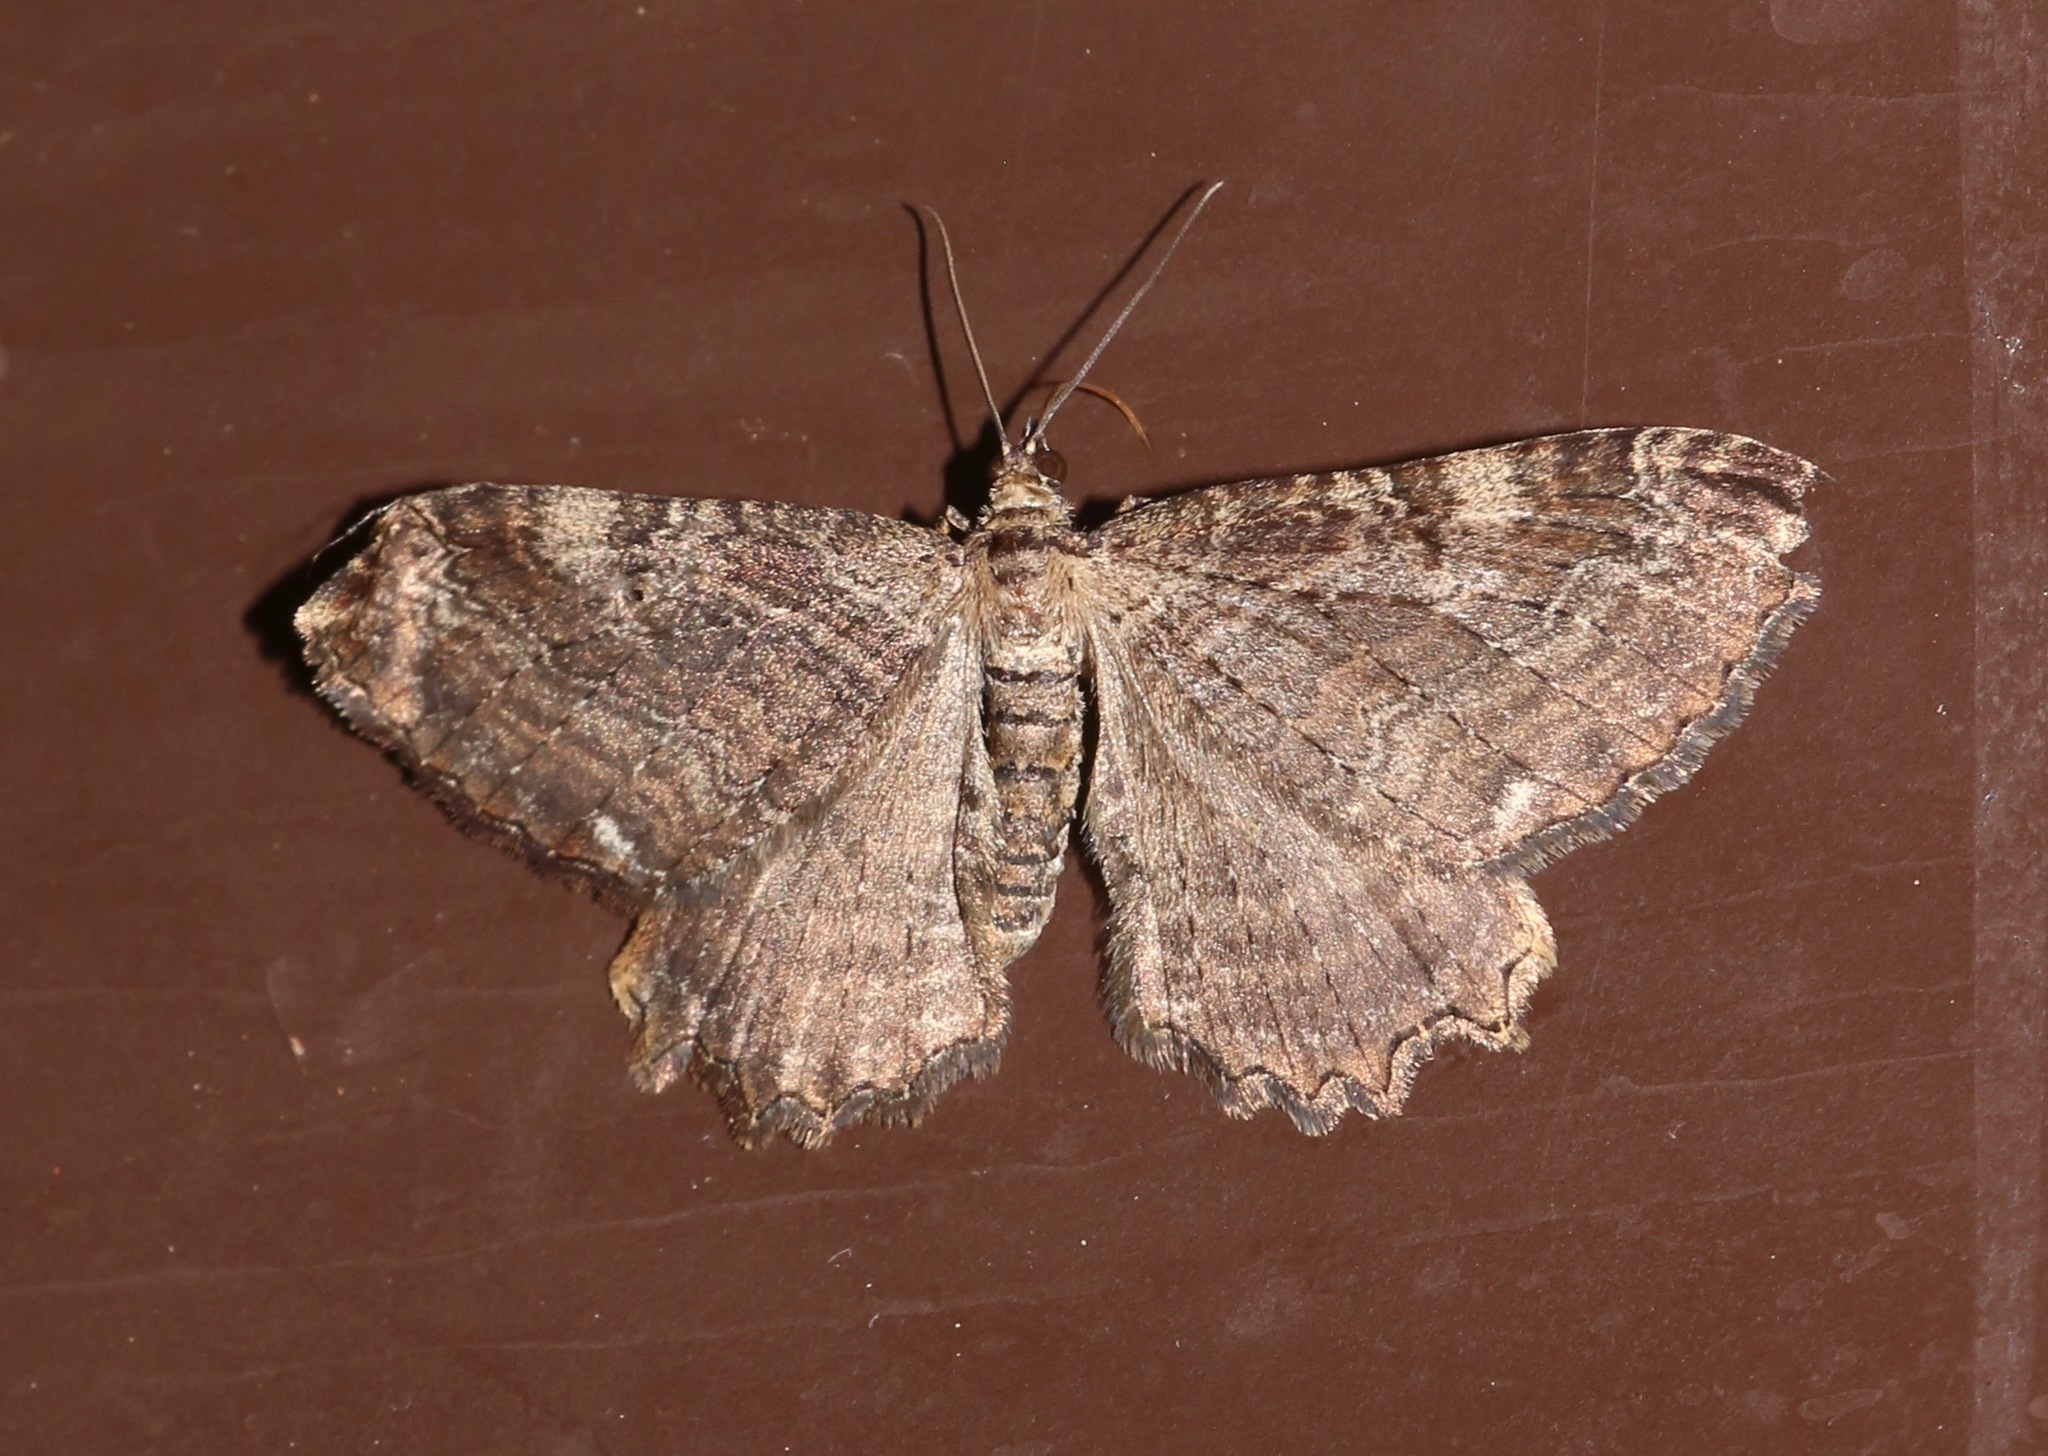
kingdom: Animalia
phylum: Arthropoda
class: Insecta
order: Lepidoptera
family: Geometridae
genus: Rheumaptera
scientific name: Rheumaptera
